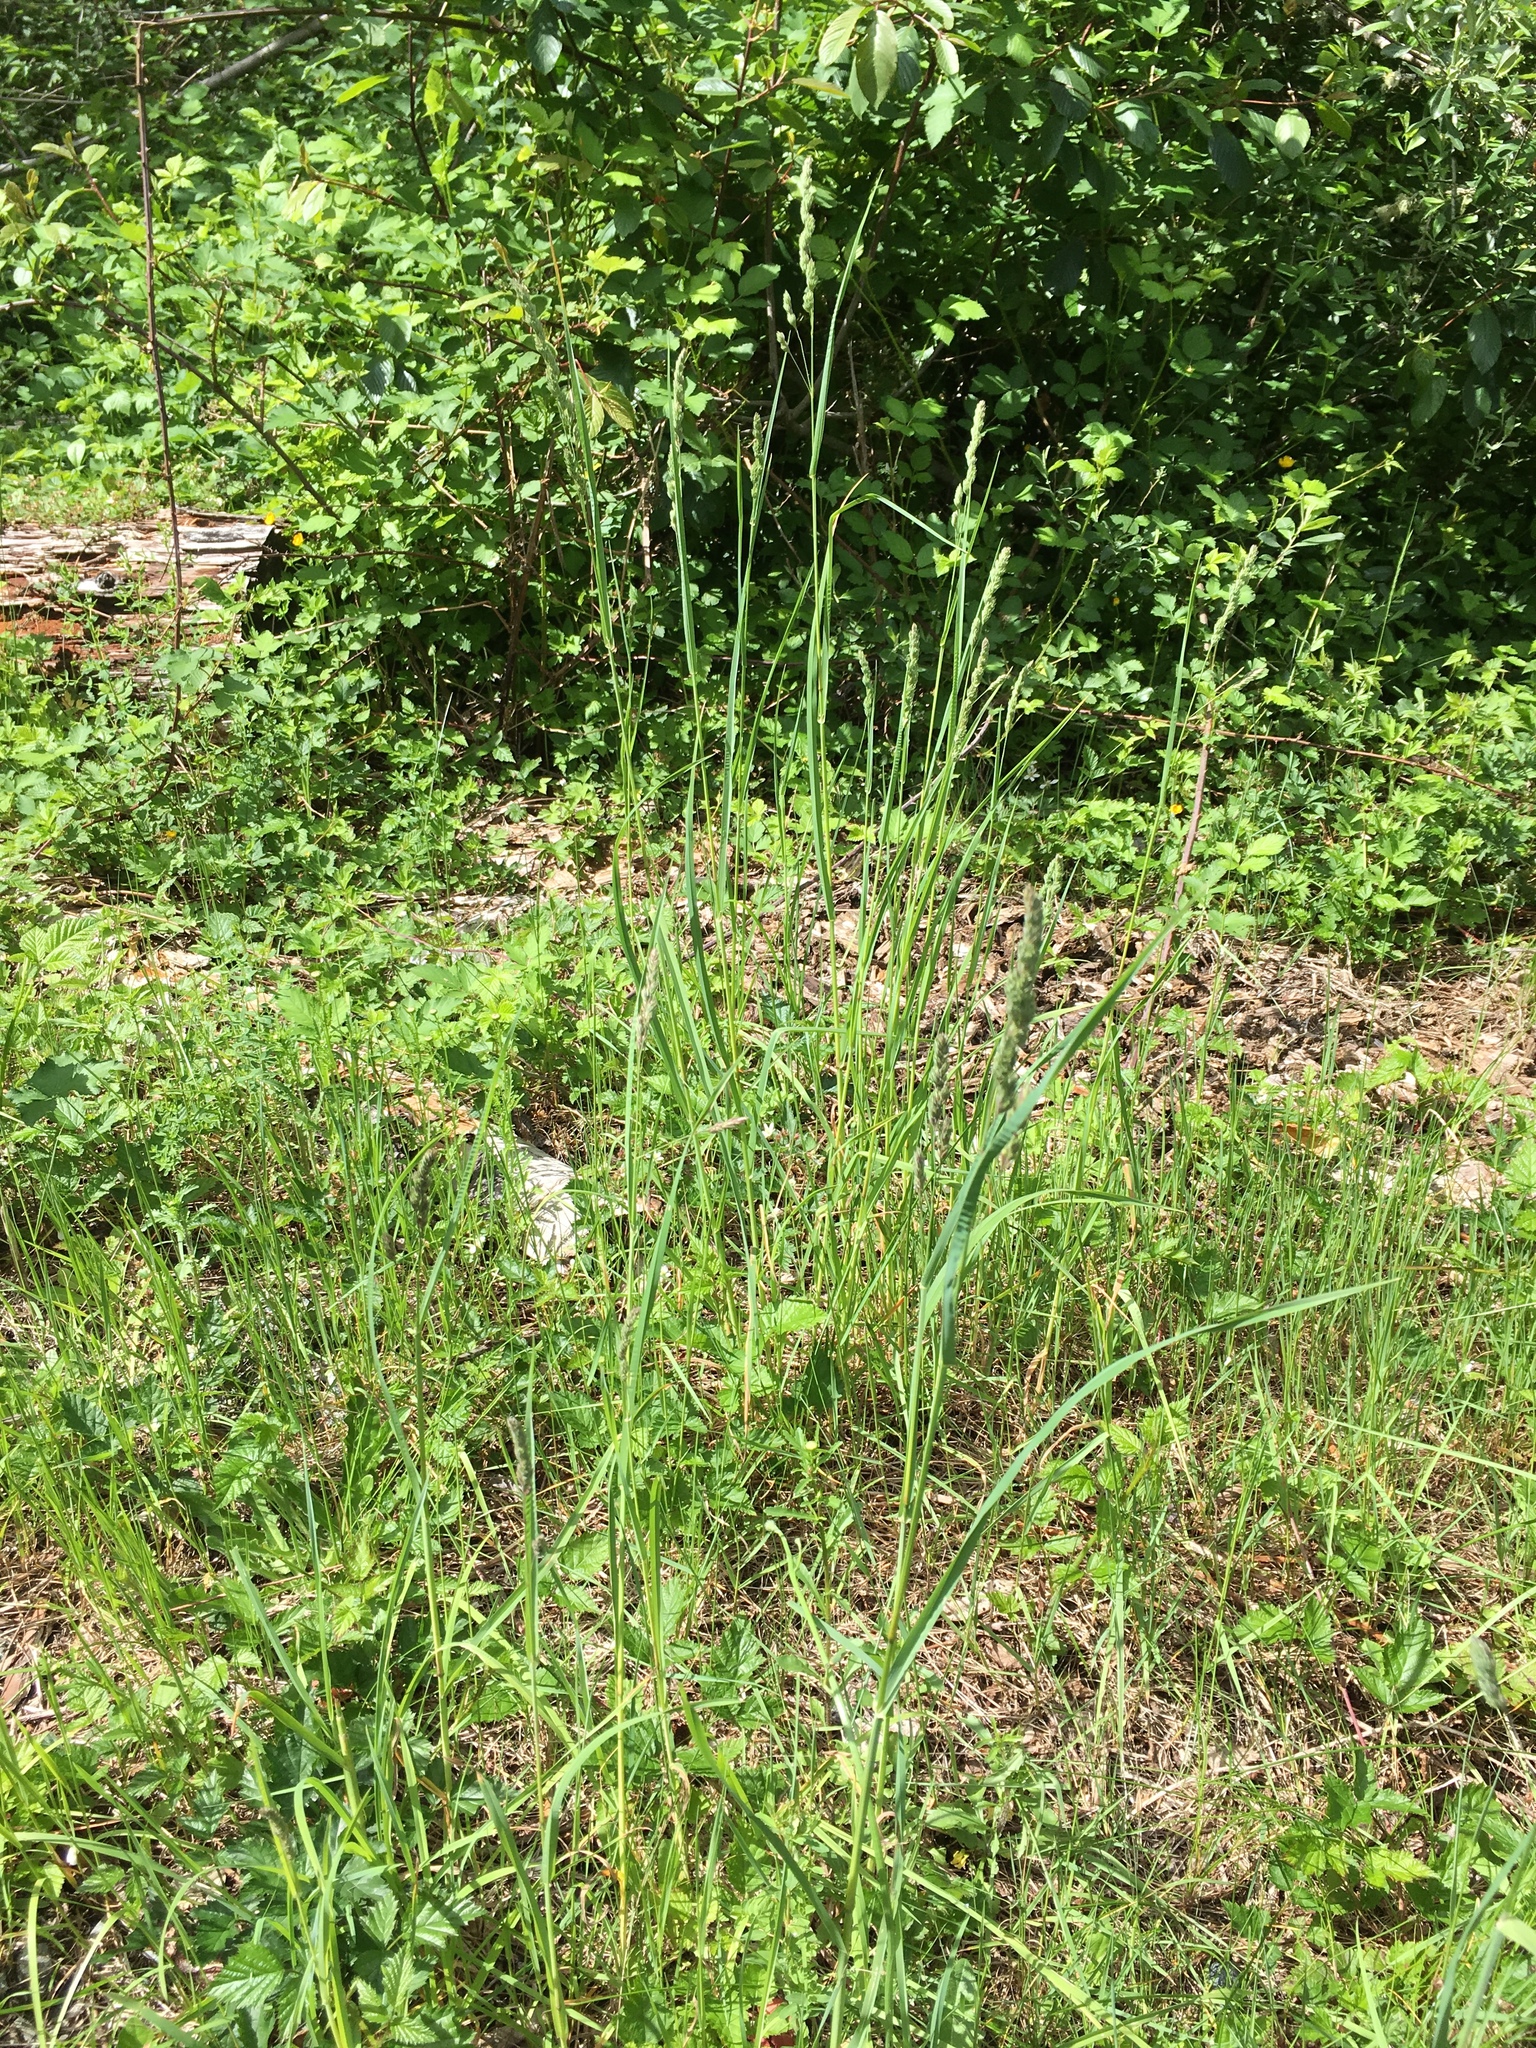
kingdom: Plantae
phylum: Tracheophyta
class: Liliopsida
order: Poales
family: Poaceae
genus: Dactylis
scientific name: Dactylis glomerata
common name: Orchardgrass
